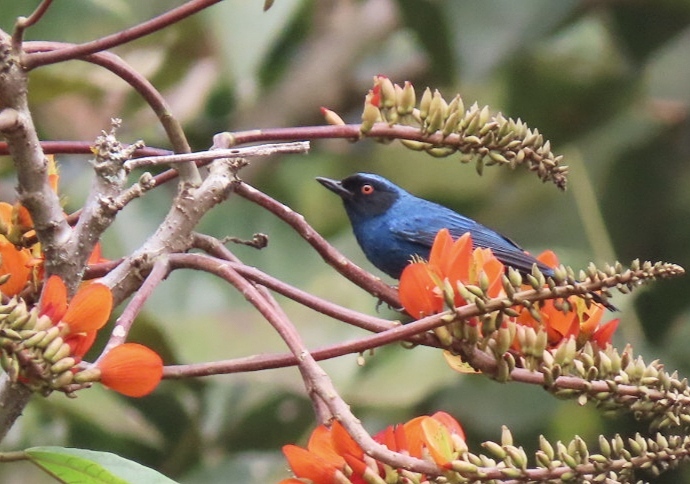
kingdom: Animalia
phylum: Chordata
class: Aves
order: Passeriformes
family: Thraupidae
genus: Diglossa
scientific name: Diglossa cyanea
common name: Masked flowerpiercer
